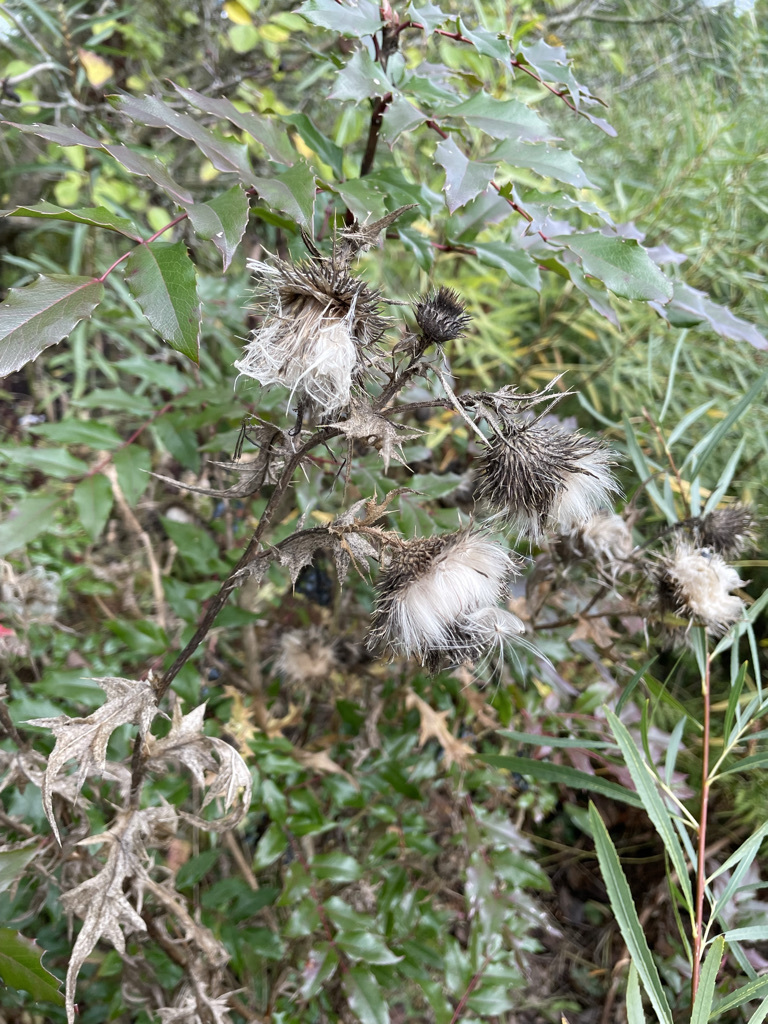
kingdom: Plantae
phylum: Tracheophyta
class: Magnoliopsida
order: Asterales
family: Asteraceae
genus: Cirsium
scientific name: Cirsium vulgare
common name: Bull thistle
